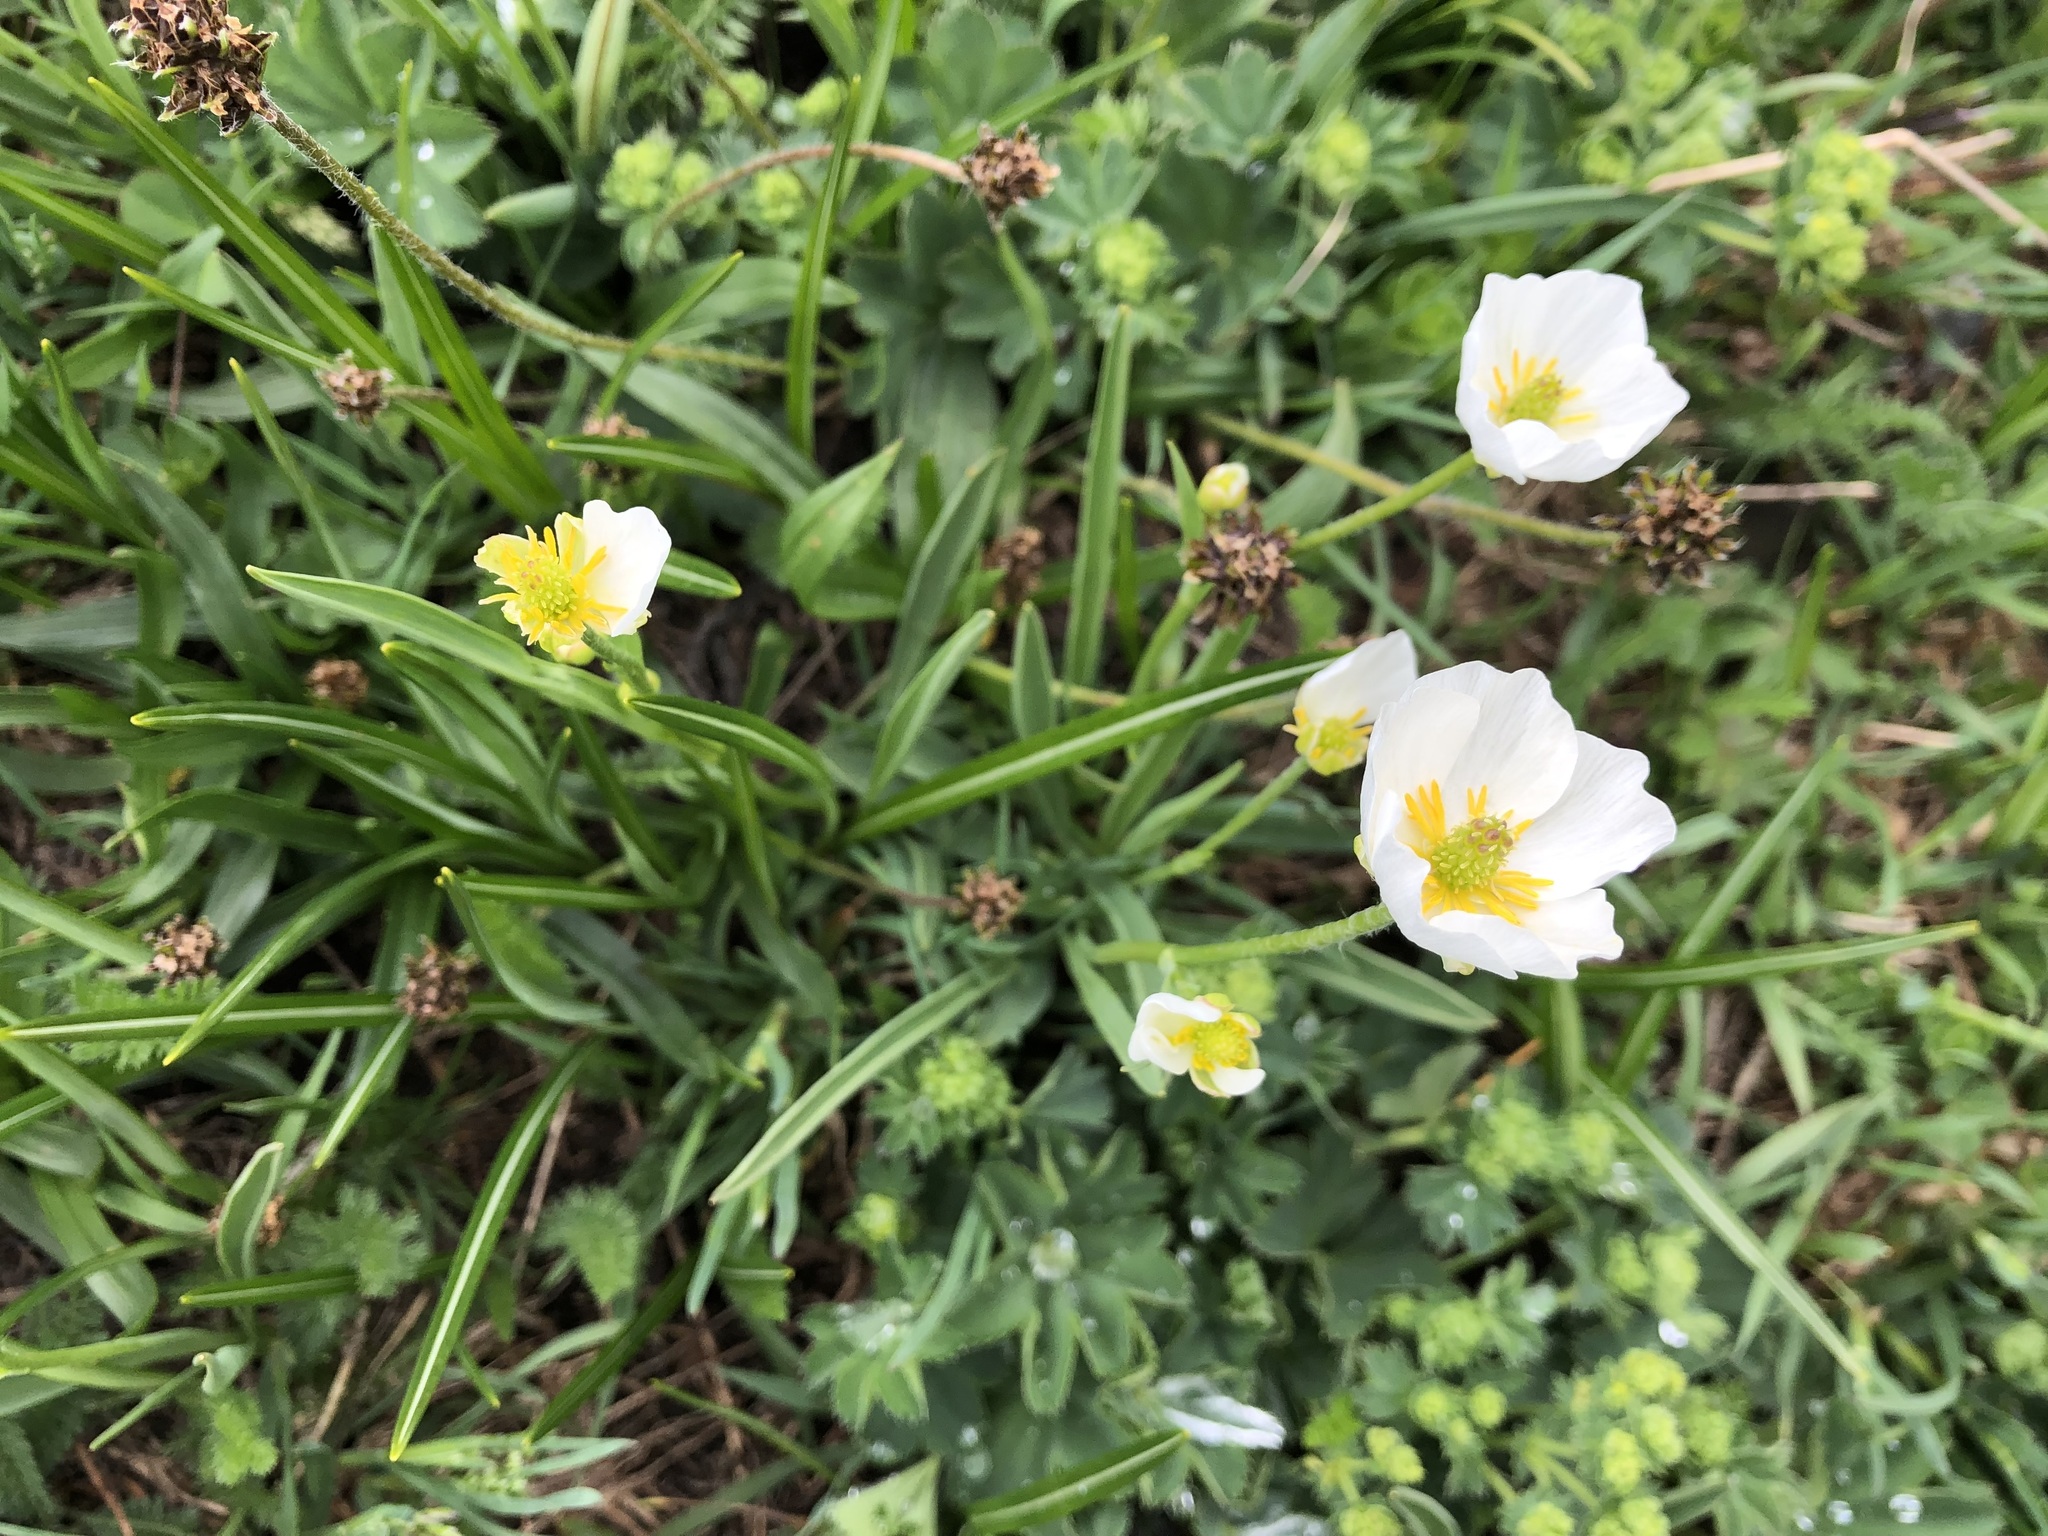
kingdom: Plantae
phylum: Tracheophyta
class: Magnoliopsida
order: Ranunculales
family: Ranunculaceae
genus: Ranunculus
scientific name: Ranunculus kuepferi
